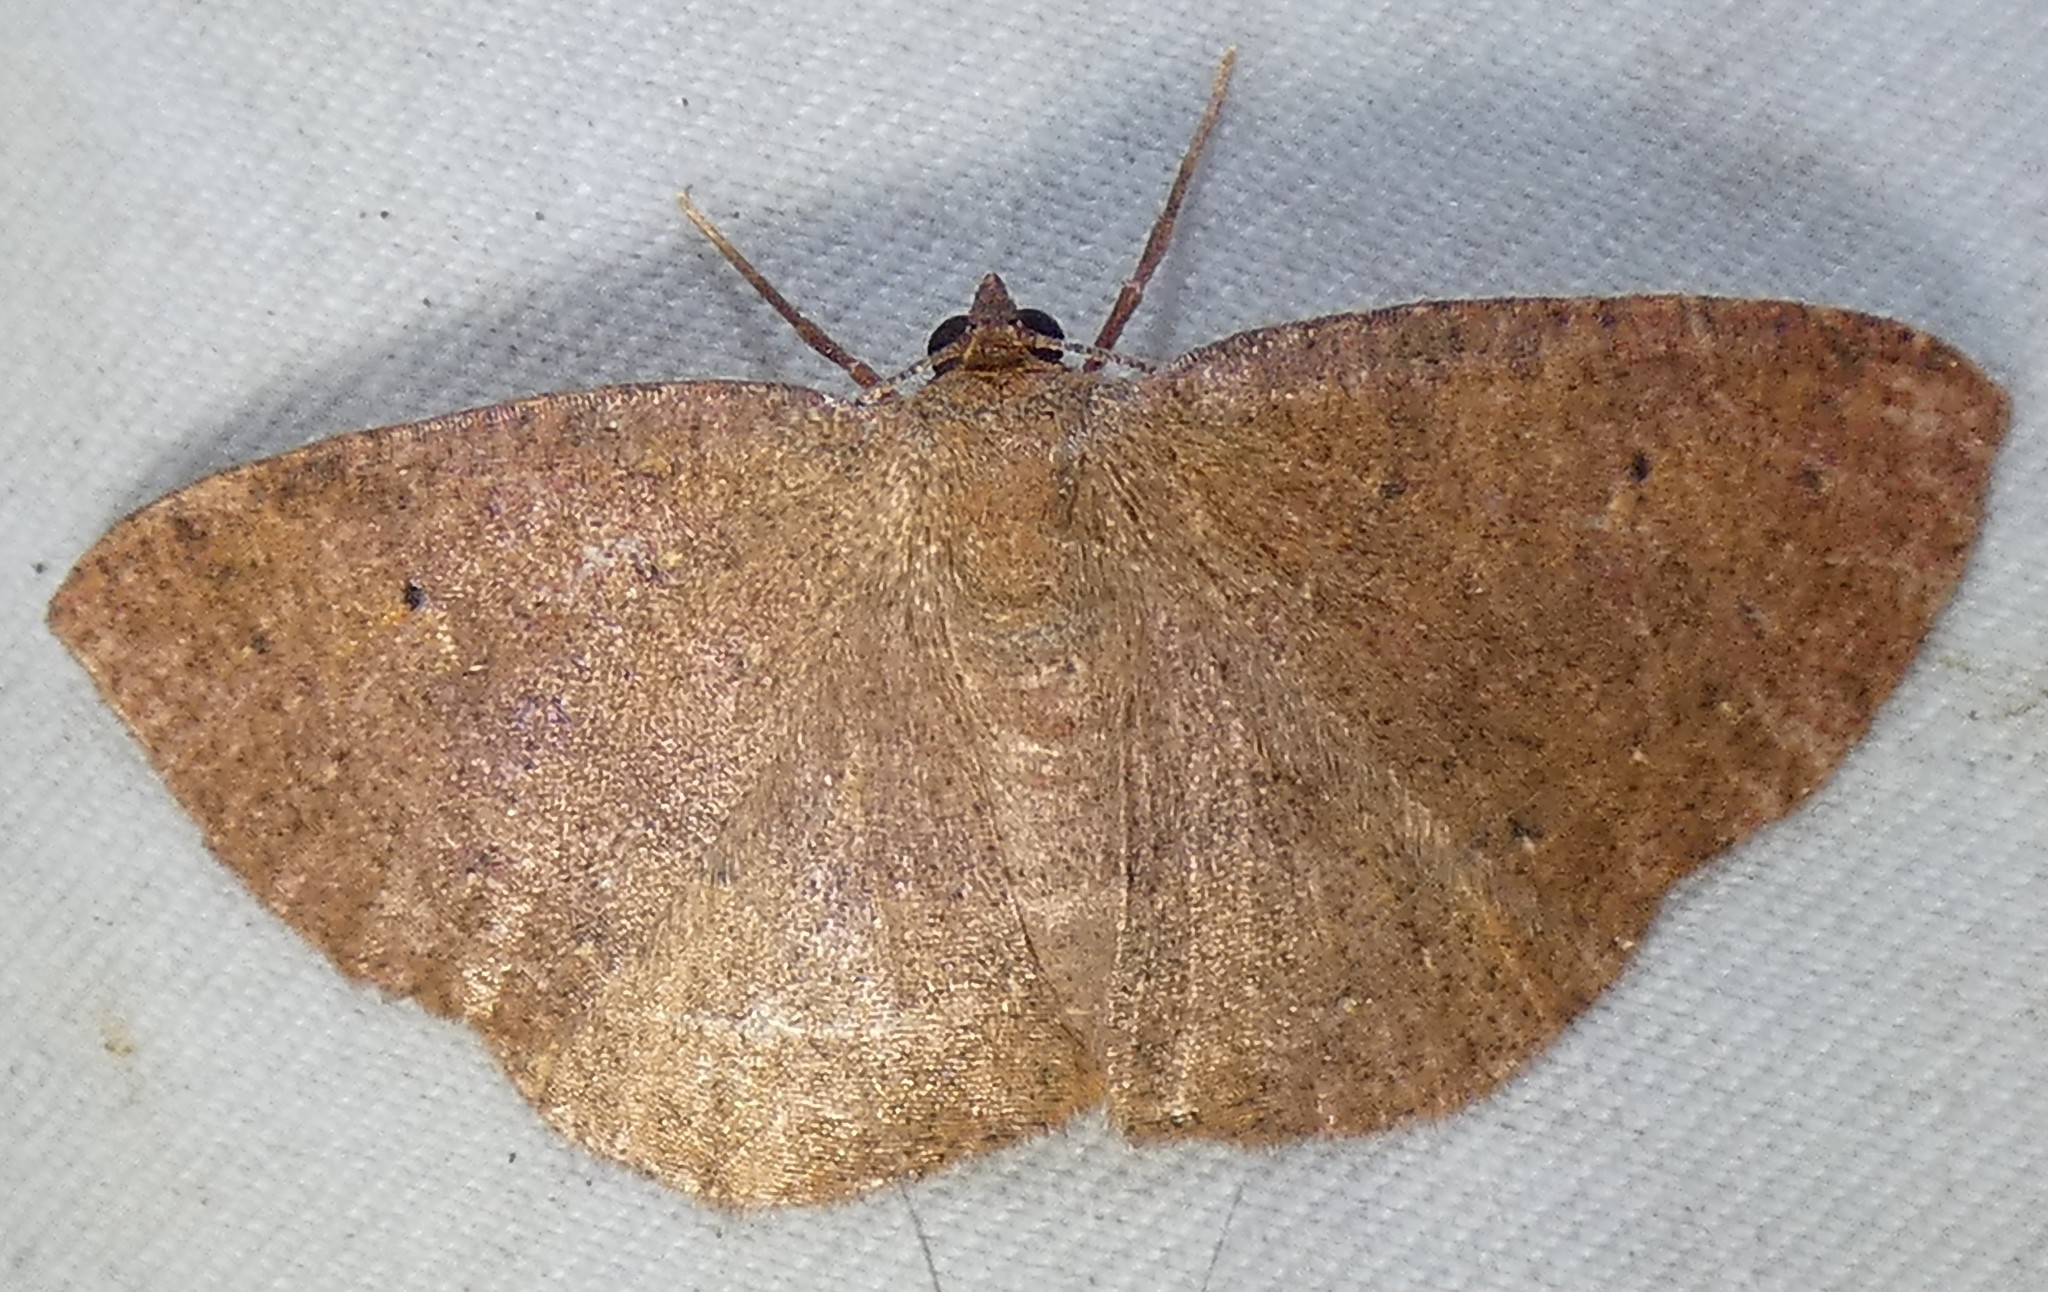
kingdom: Animalia
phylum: Arthropoda
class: Insecta
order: Lepidoptera
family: Geometridae
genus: Ilexia
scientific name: Ilexia intractata
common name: Black-dotted ruddy moth
